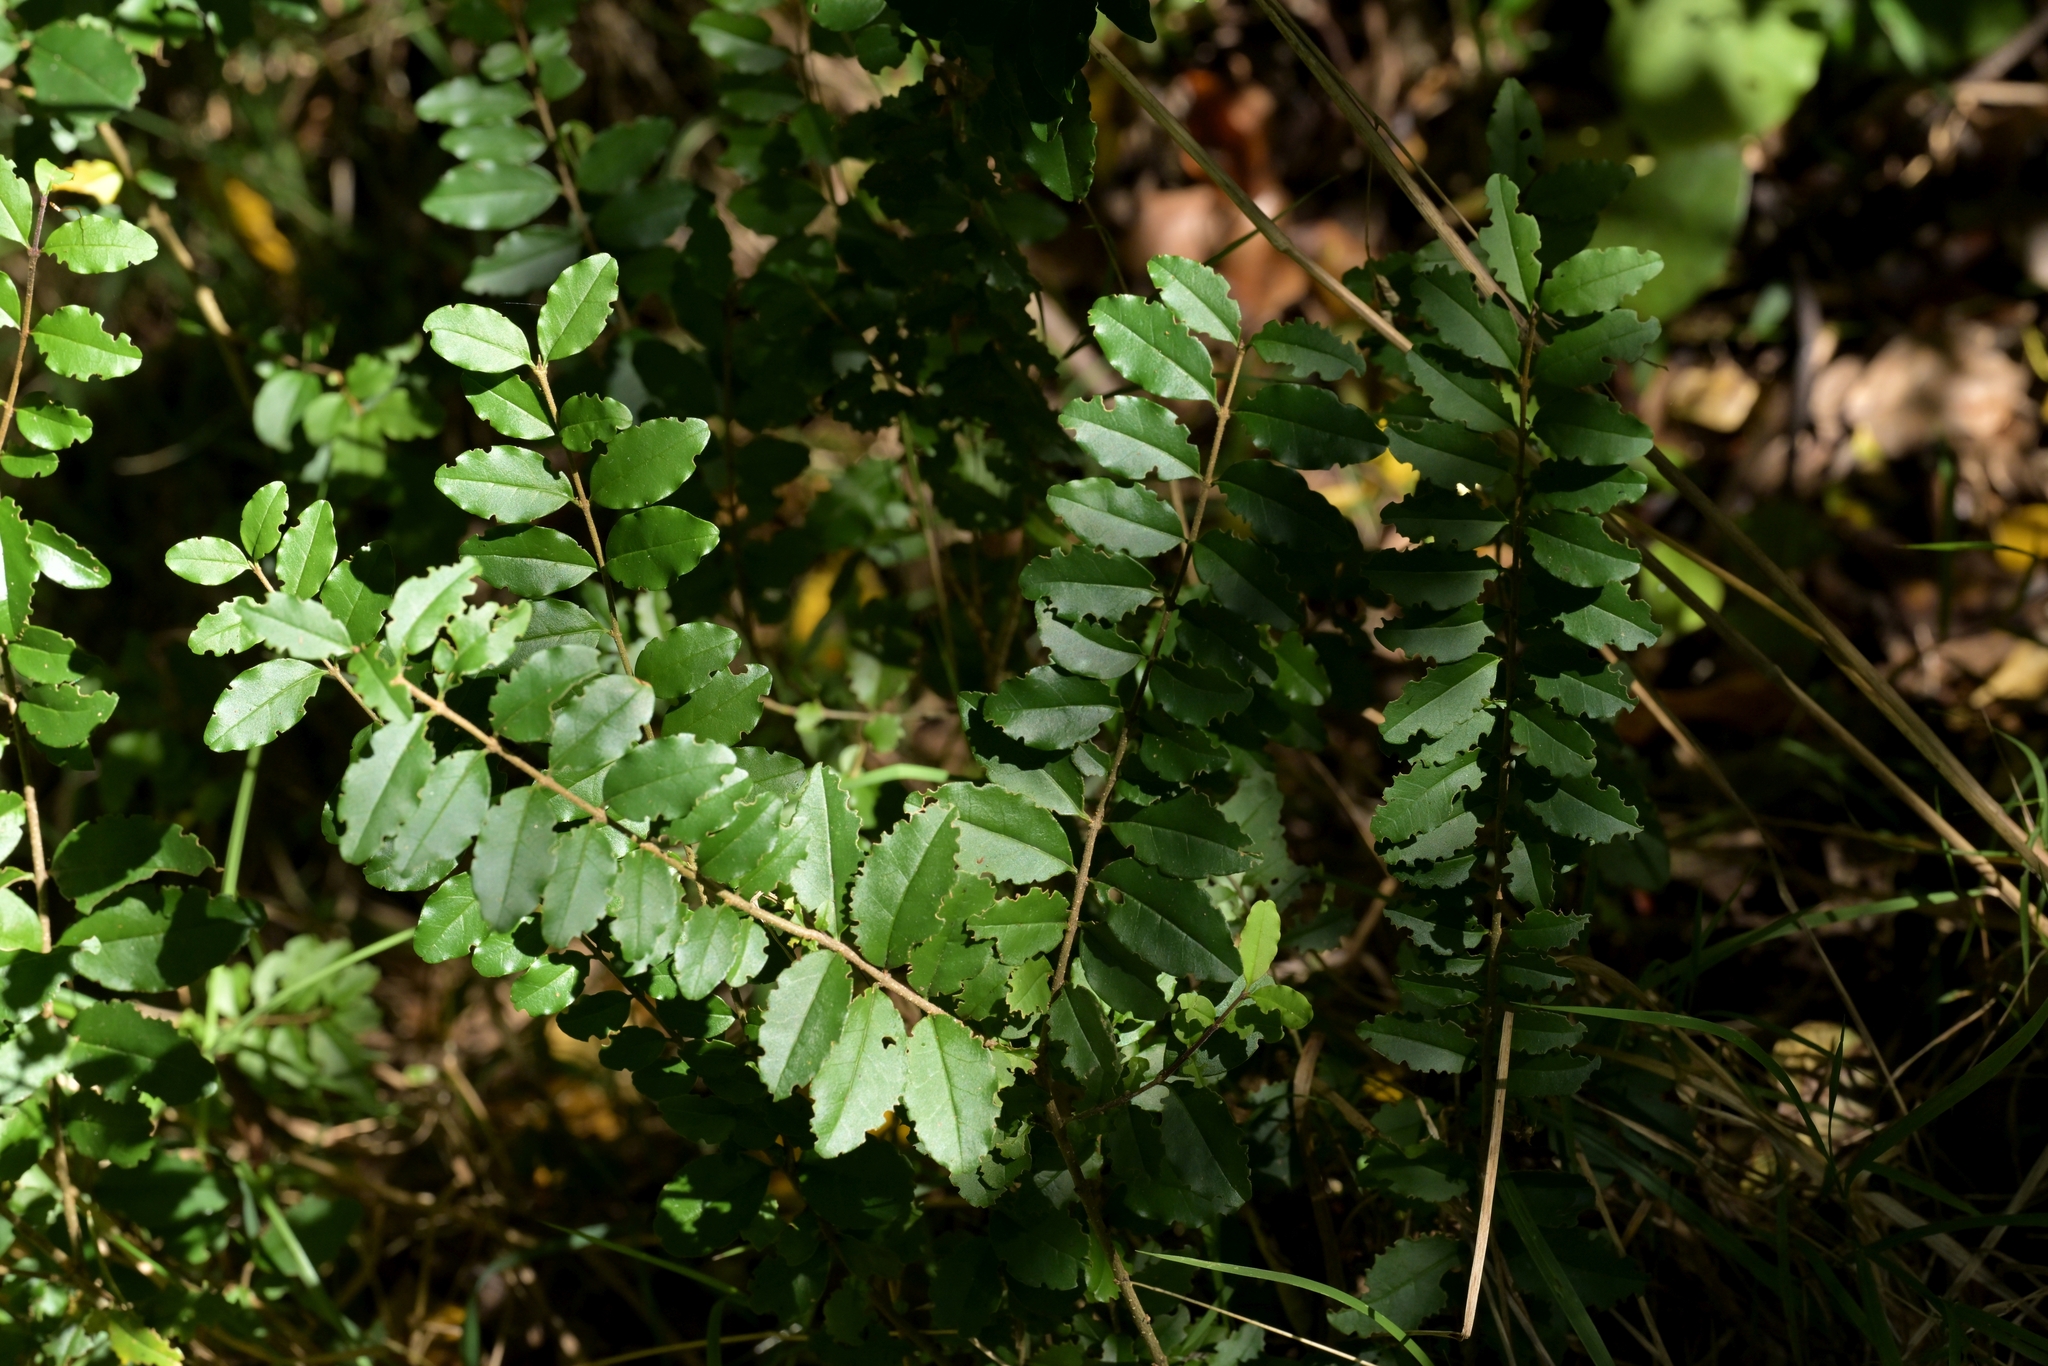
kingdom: Plantae
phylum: Tracheophyta
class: Magnoliopsida
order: Lamiales
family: Oleaceae
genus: Ligustrum
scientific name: Ligustrum sinense
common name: Chinese privet
